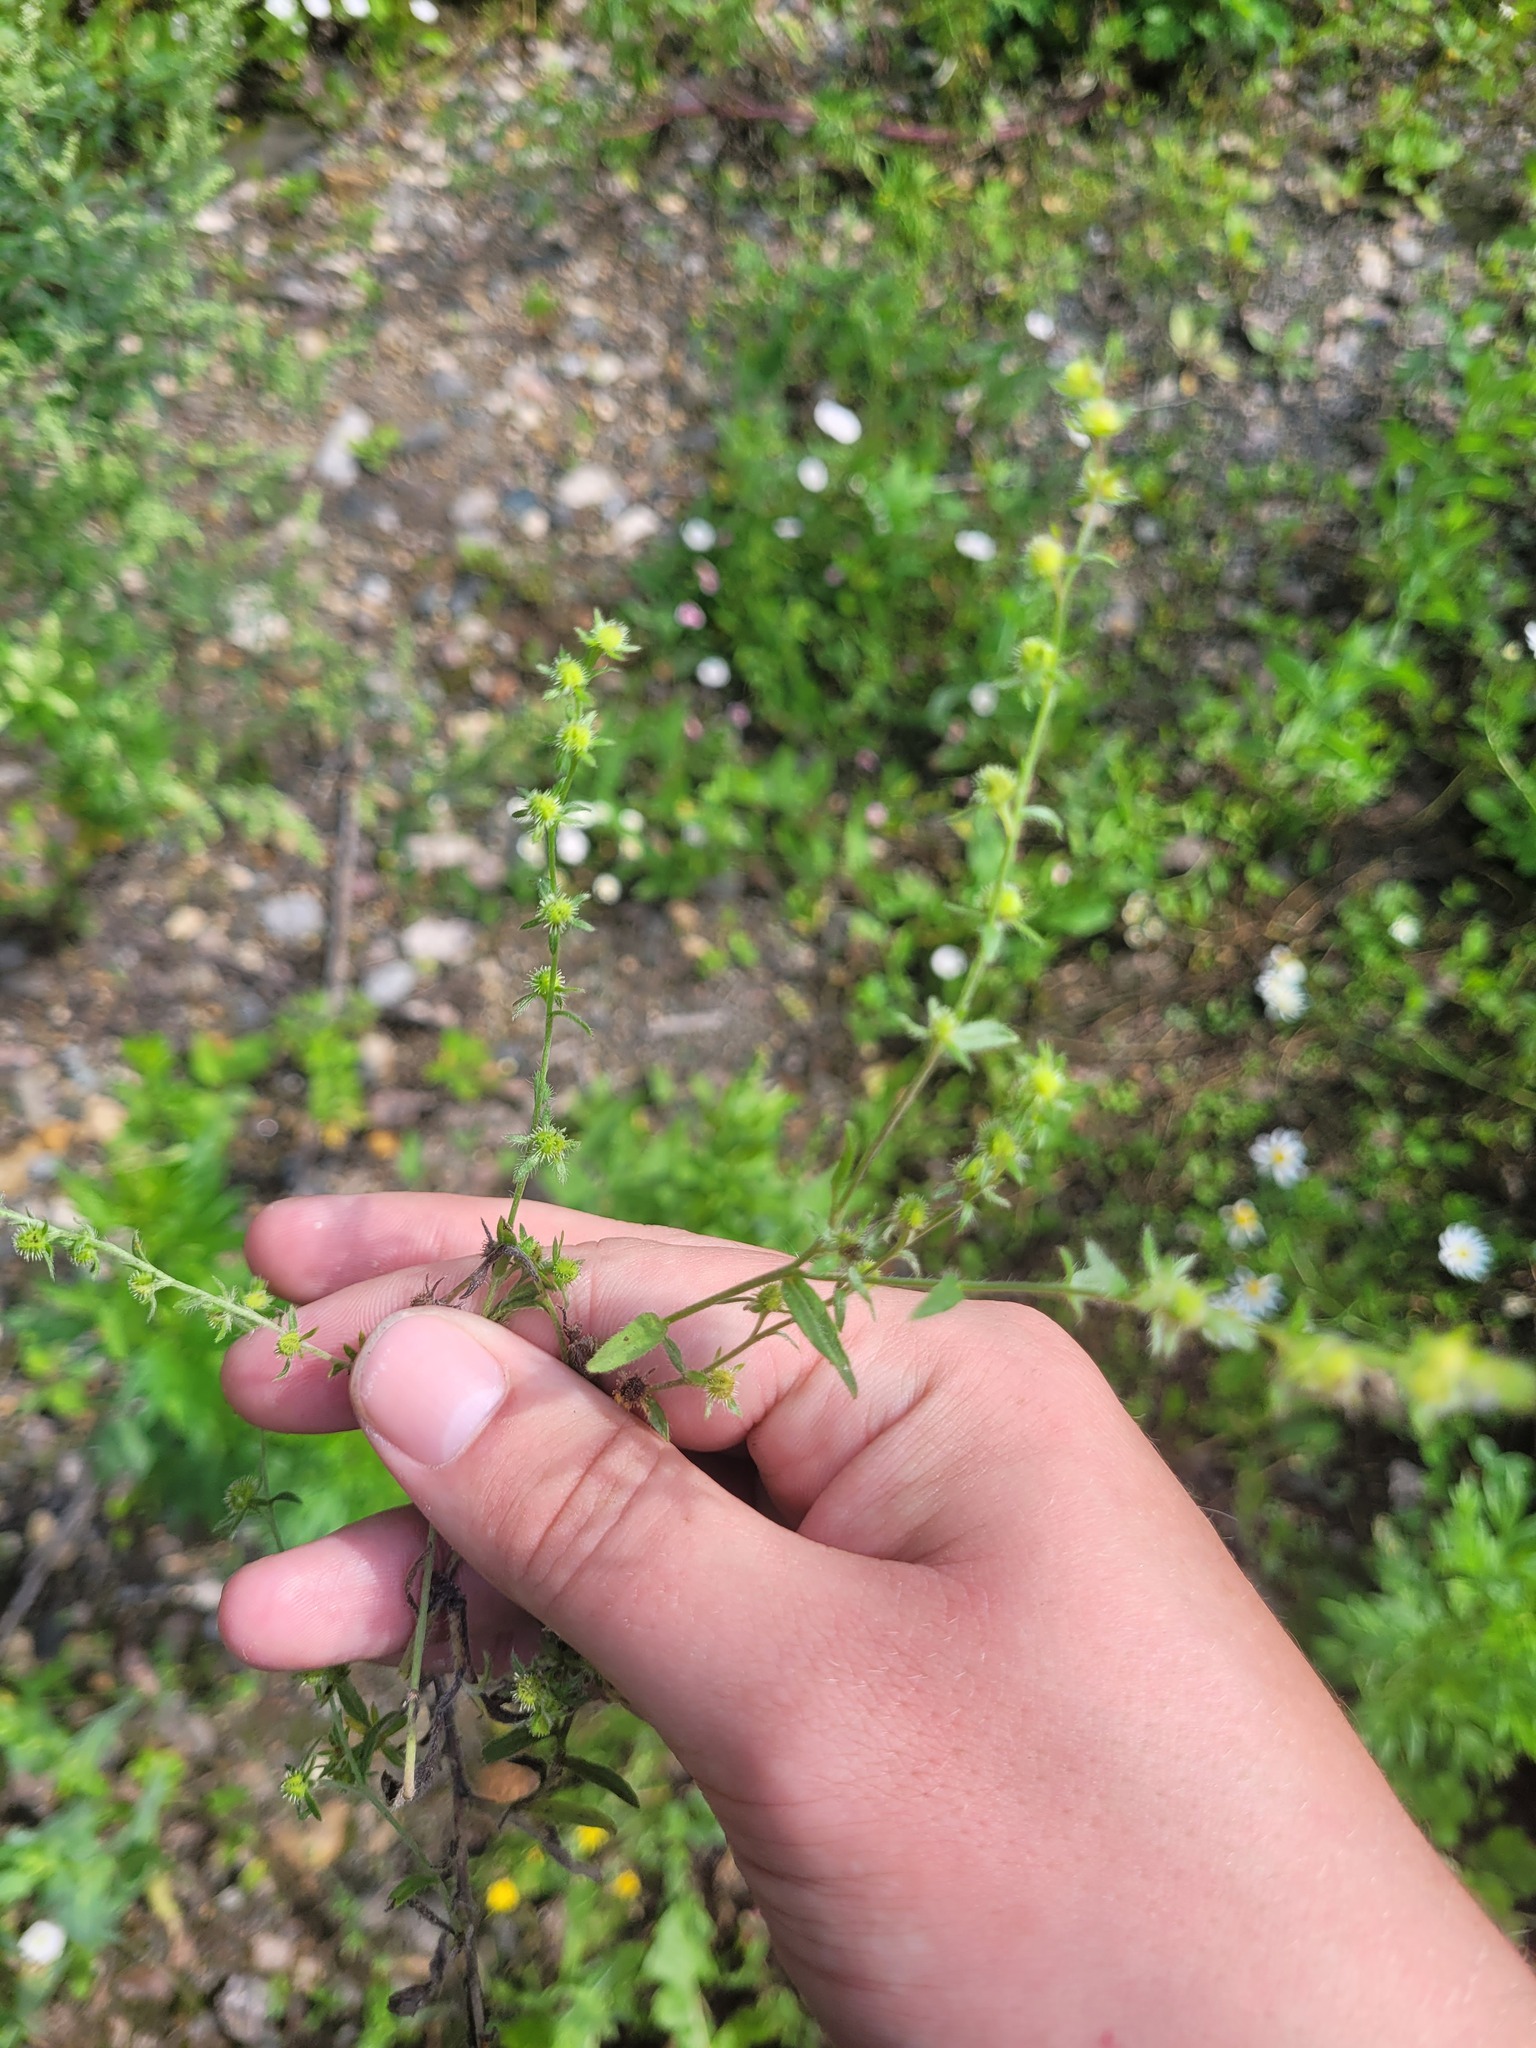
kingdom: Plantae
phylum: Tracheophyta
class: Magnoliopsida
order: Boraginales
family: Boraginaceae
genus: Lappula
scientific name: Lappula squarrosa
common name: European stickseed
